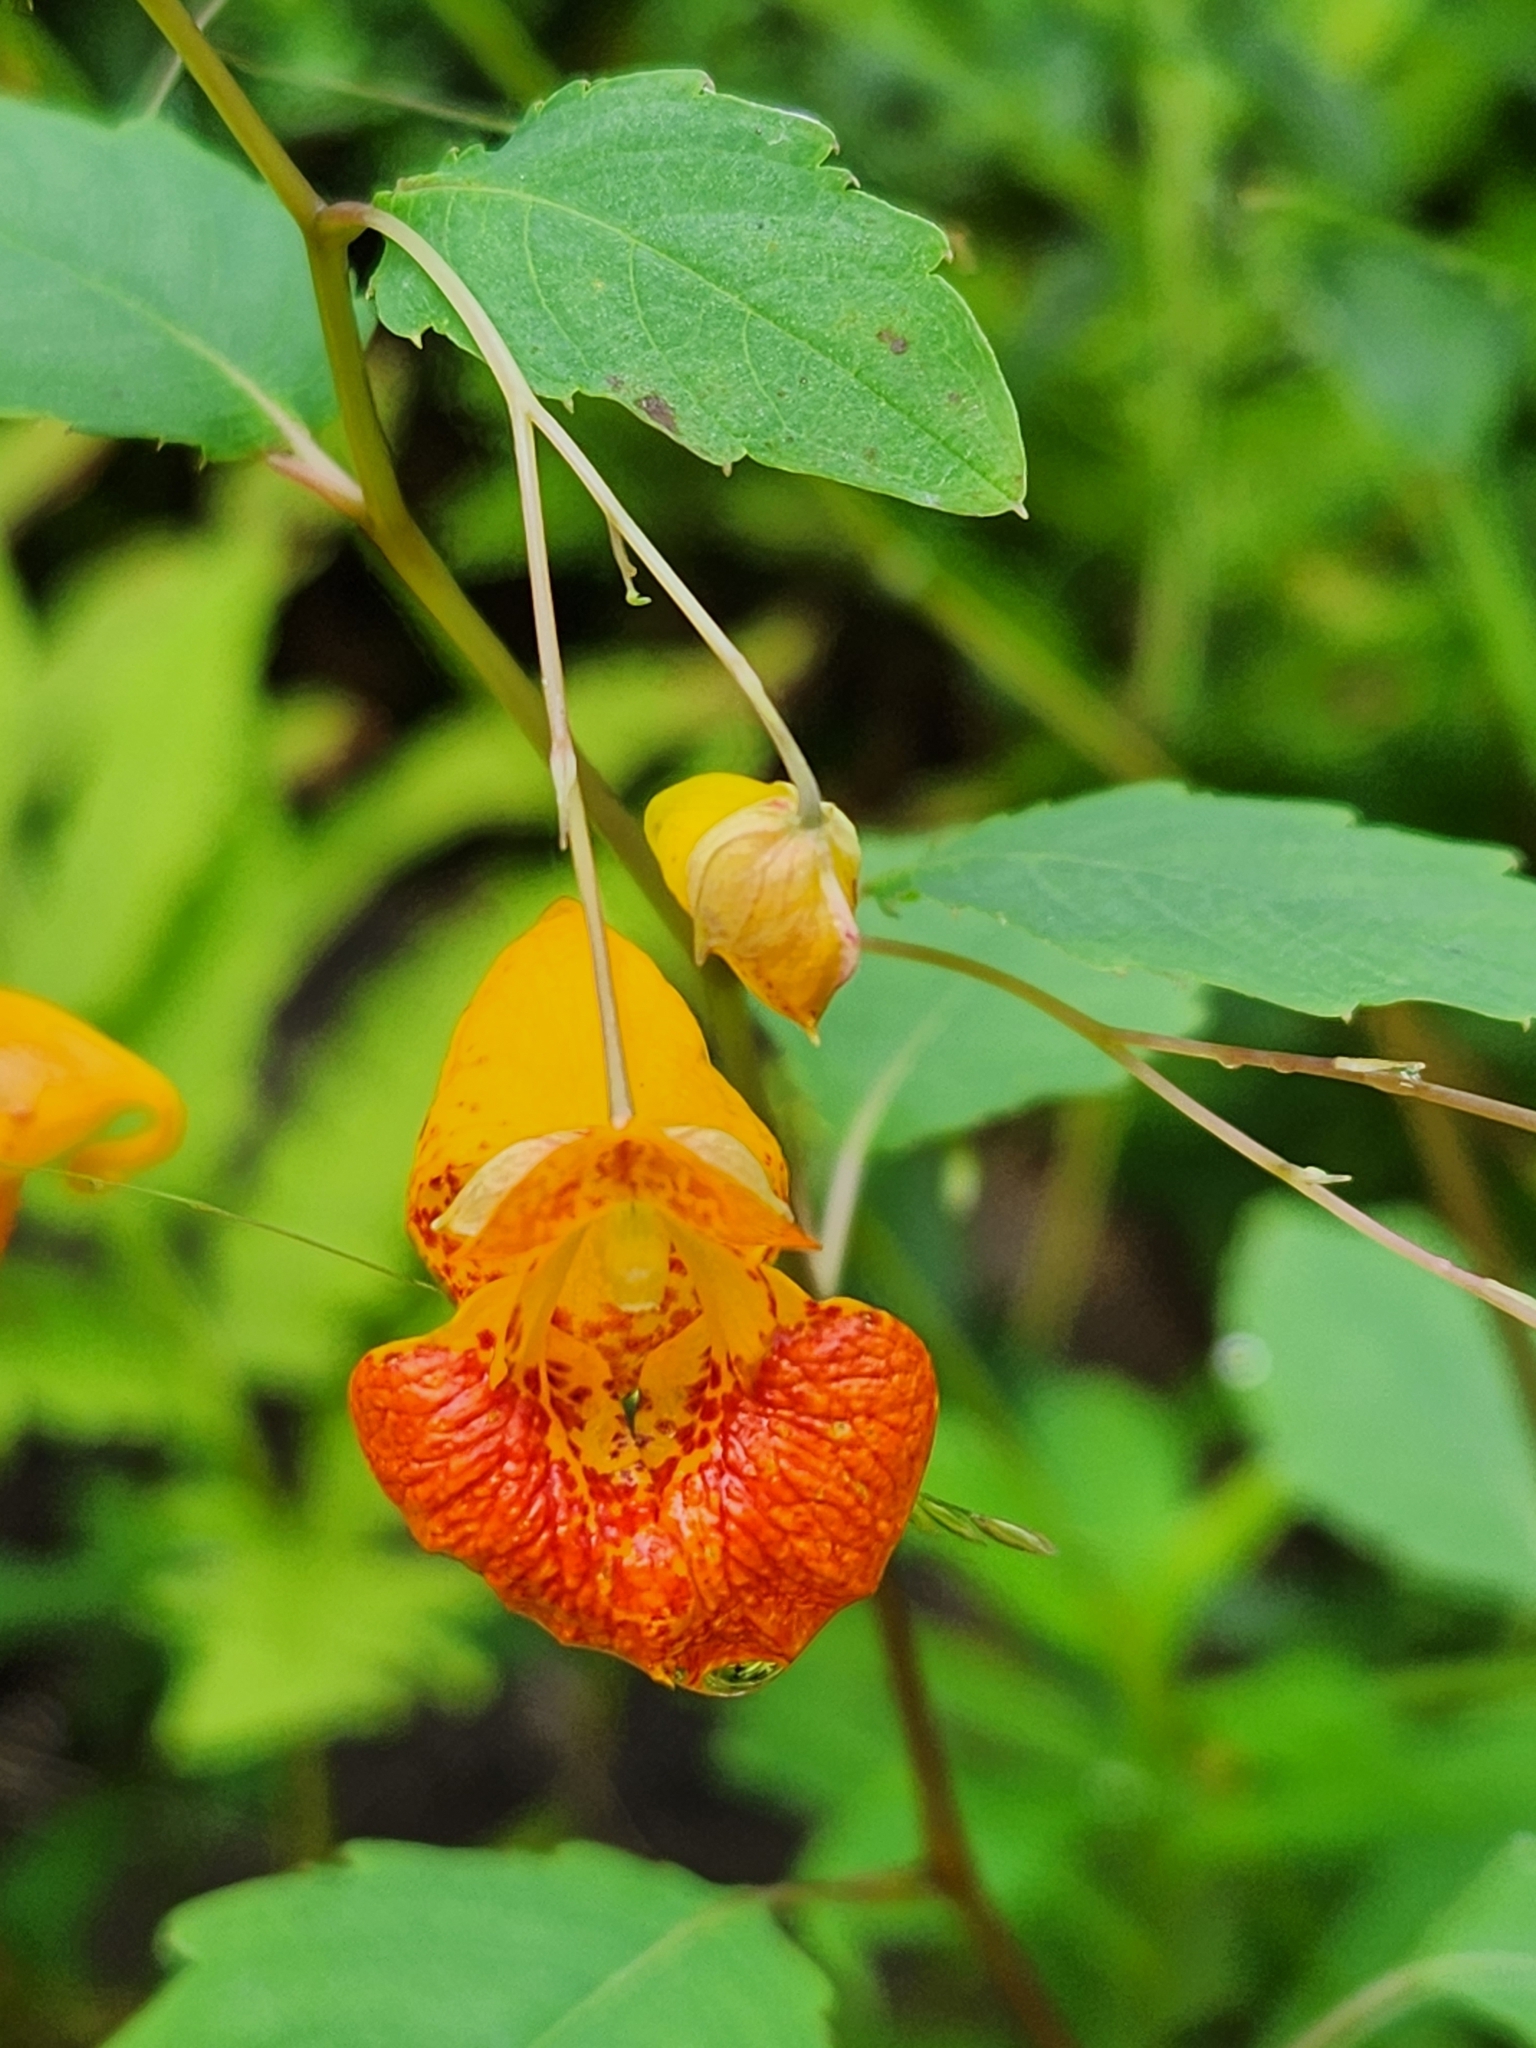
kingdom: Plantae
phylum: Tracheophyta
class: Magnoliopsida
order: Ericales
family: Balsaminaceae
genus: Impatiens
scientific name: Impatiens capensis
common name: Orange balsam
